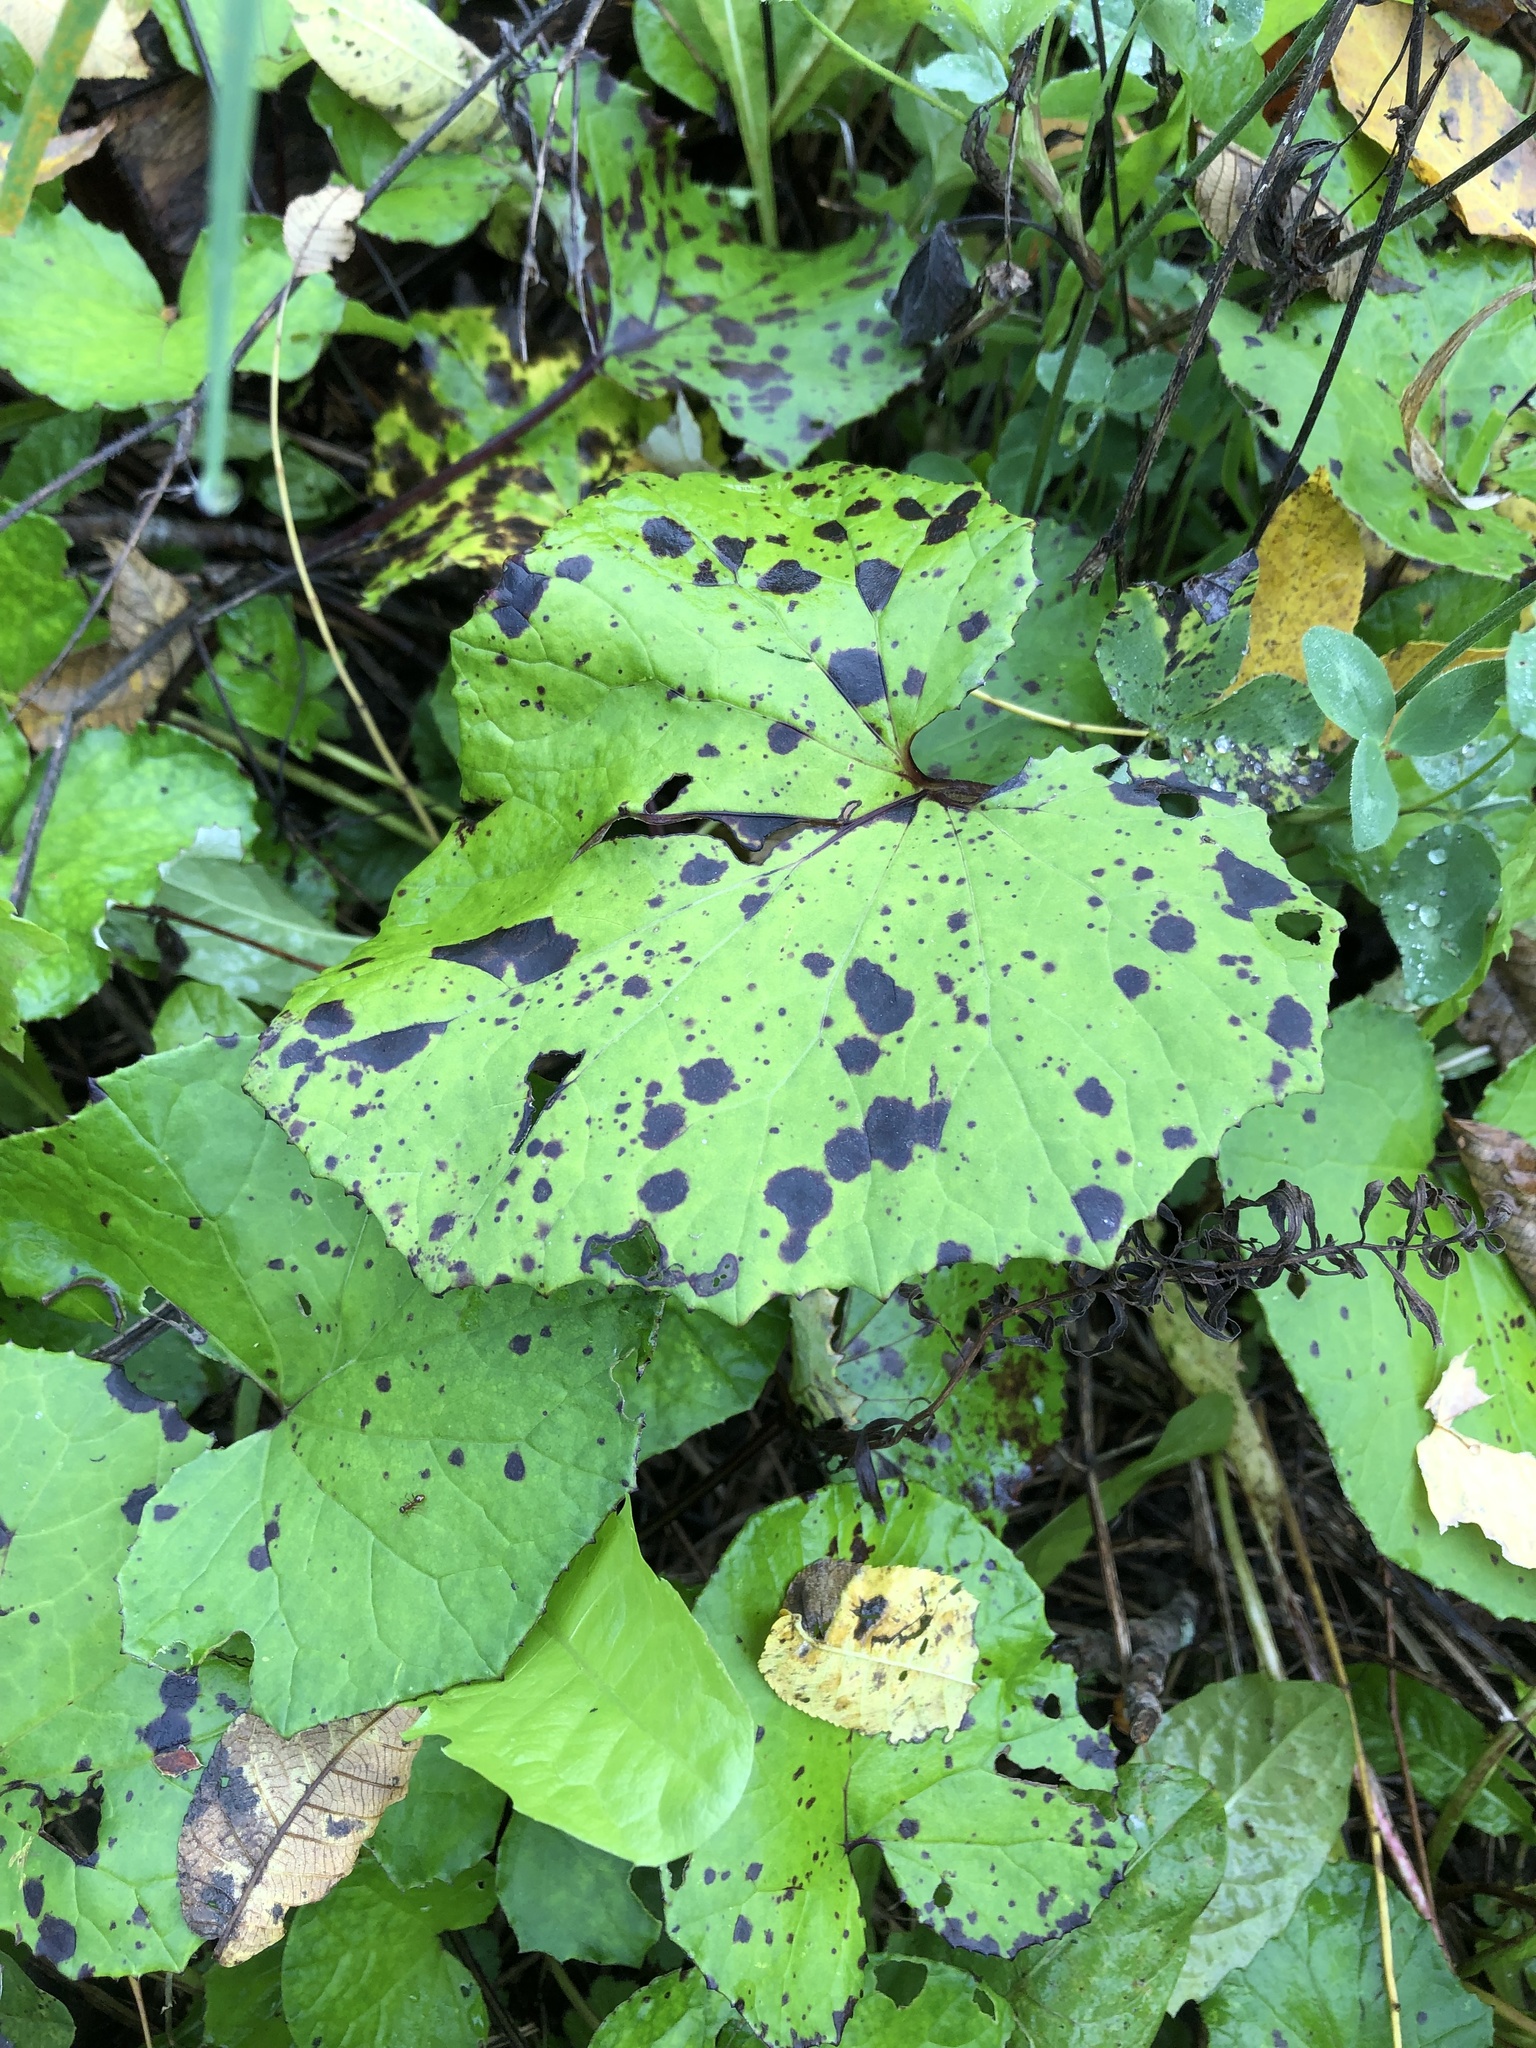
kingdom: Plantae
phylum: Tracheophyta
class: Magnoliopsida
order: Asterales
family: Asteraceae
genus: Tussilago
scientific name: Tussilago farfara
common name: Coltsfoot
